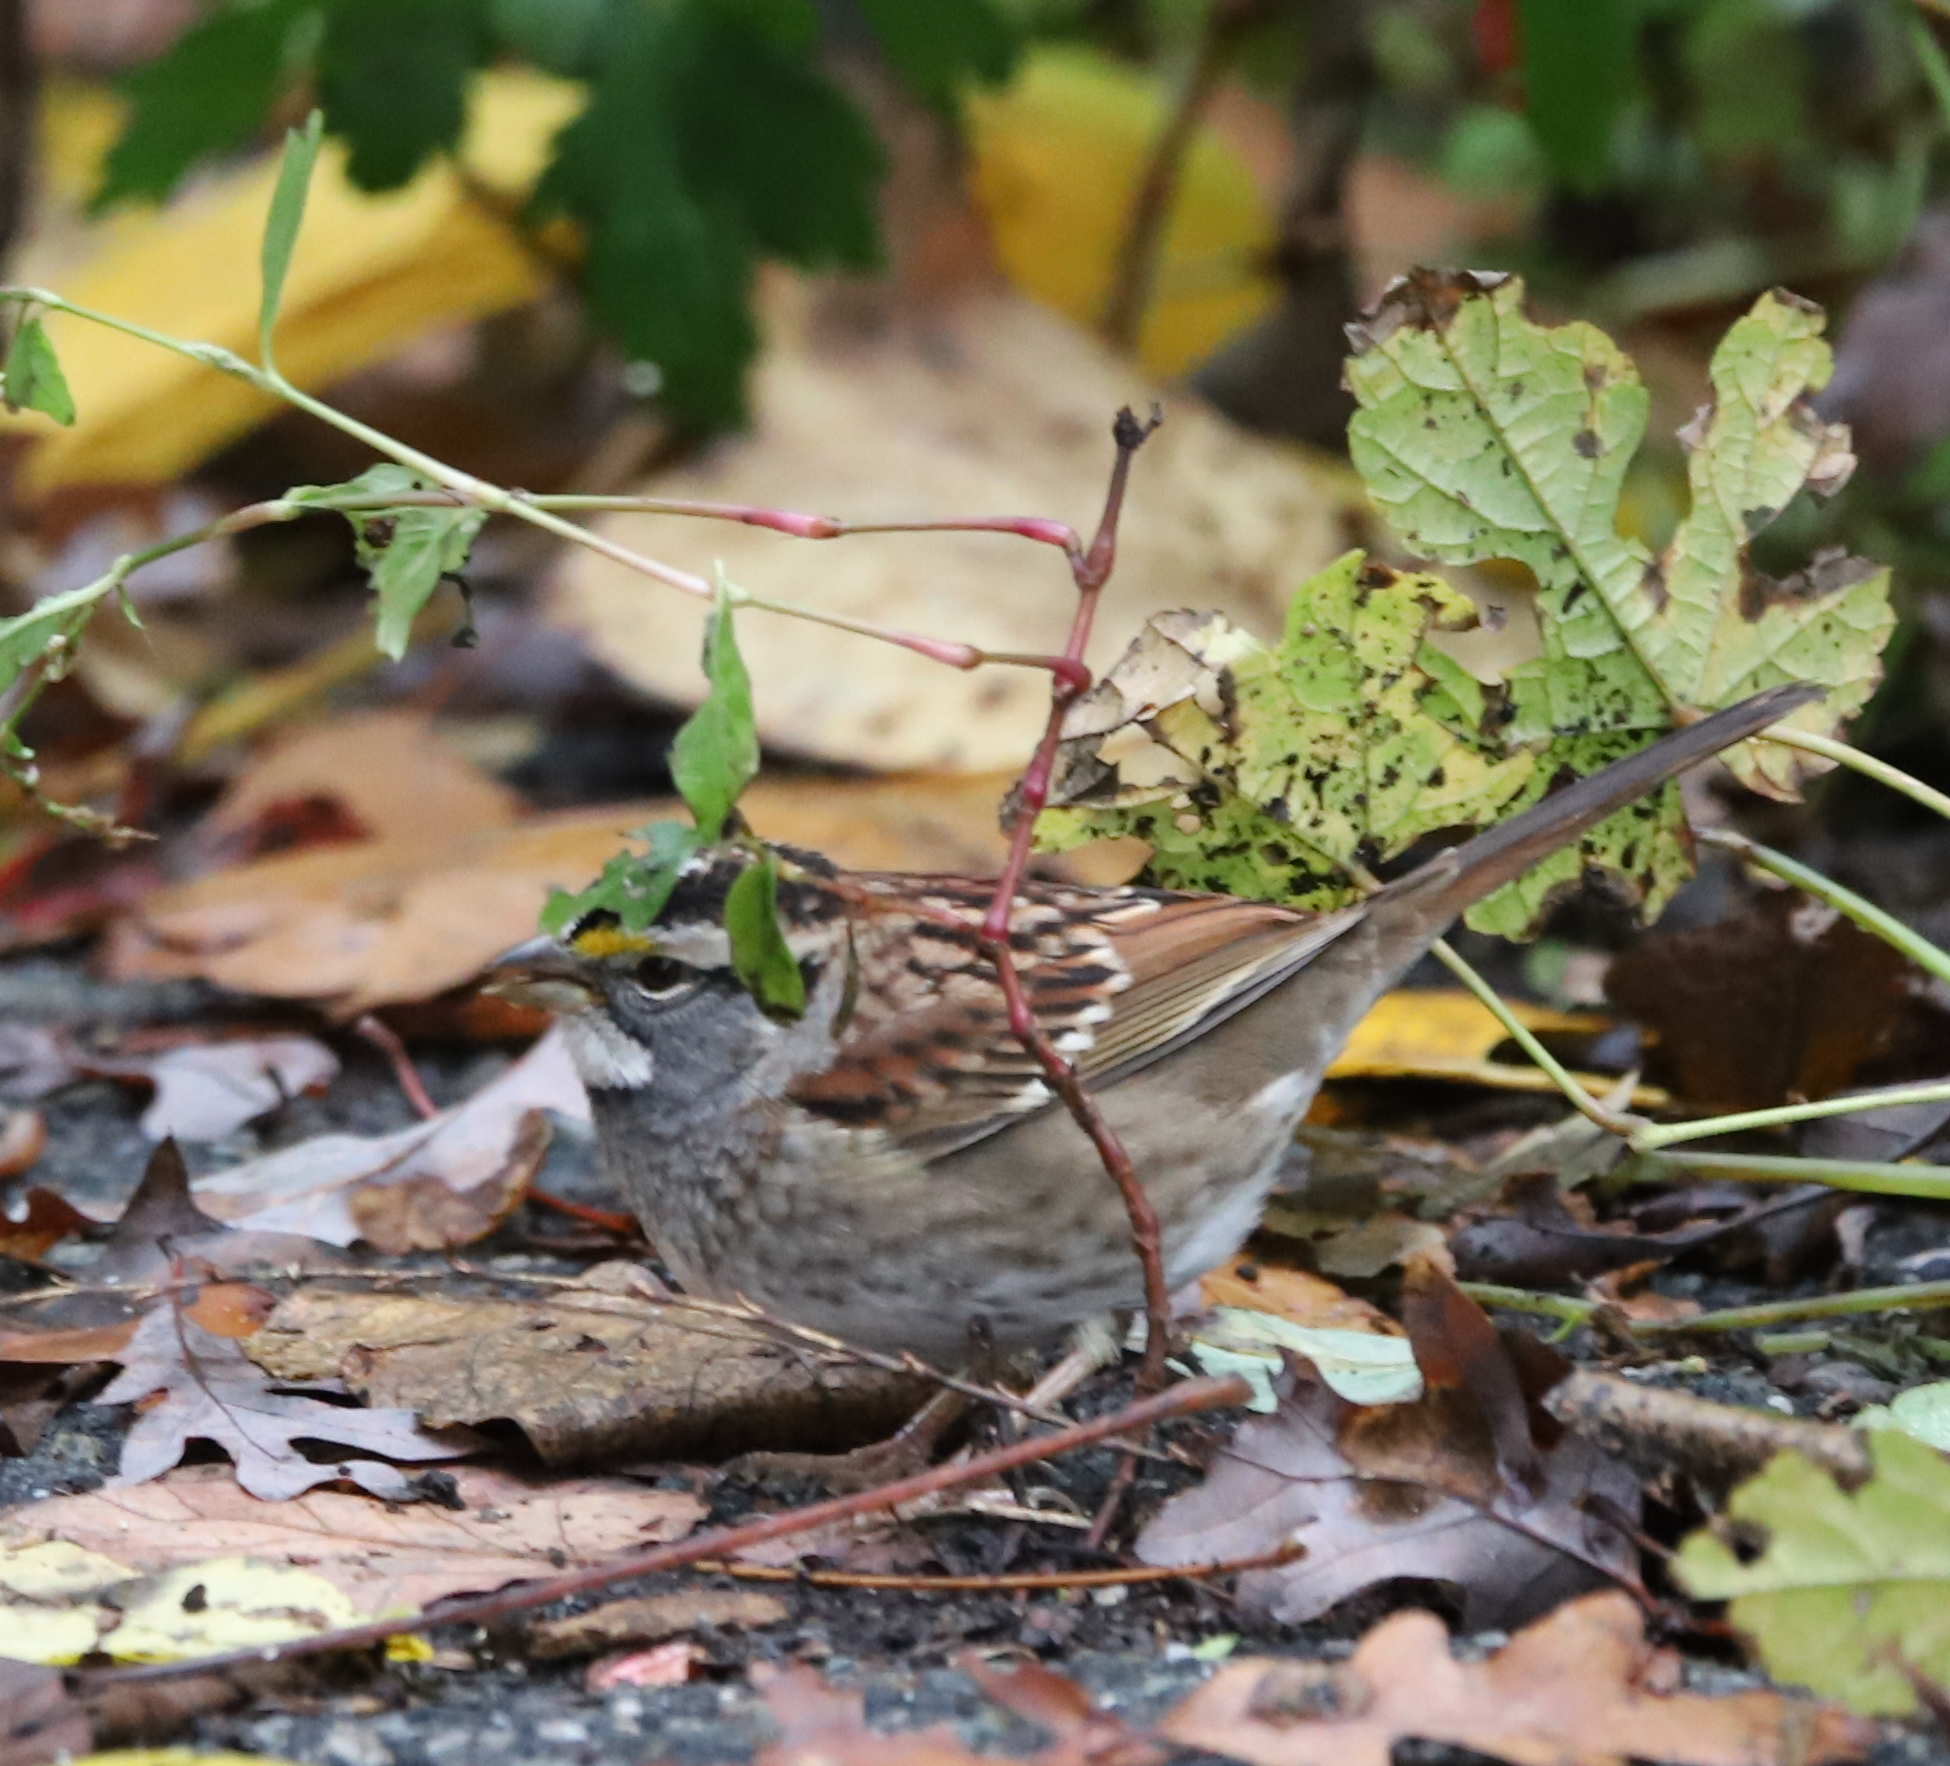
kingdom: Animalia
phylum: Chordata
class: Aves
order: Passeriformes
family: Passerellidae
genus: Zonotrichia
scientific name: Zonotrichia albicollis
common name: White-throated sparrow
